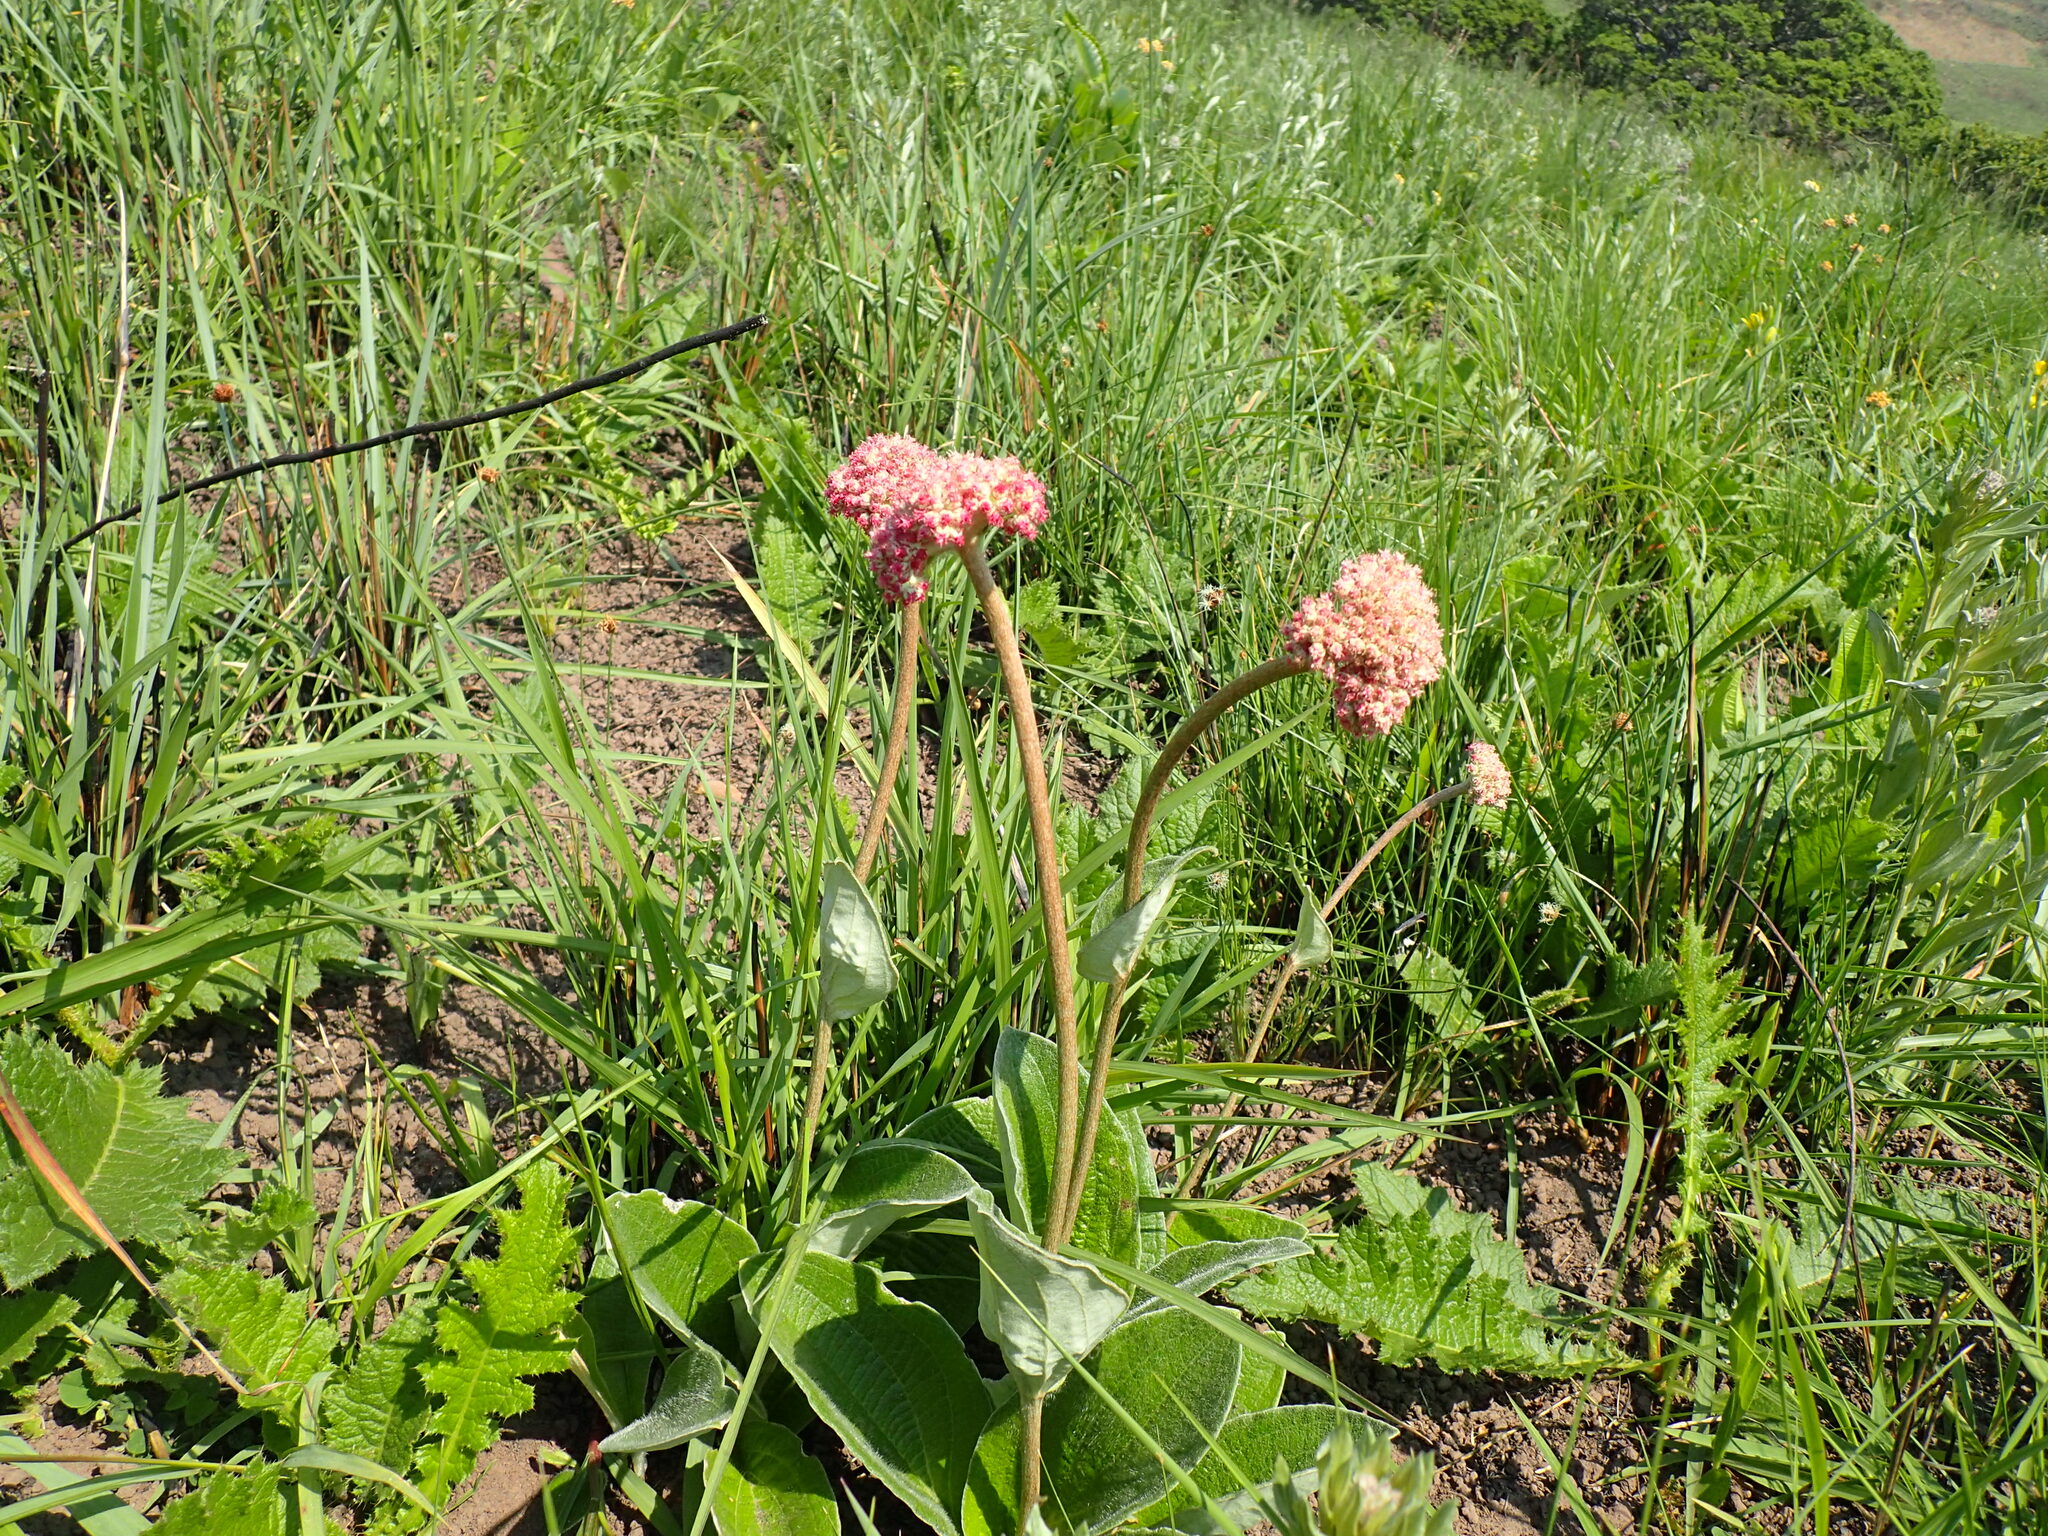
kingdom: Plantae
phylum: Tracheophyta
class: Magnoliopsida
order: Asterales
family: Asteraceae
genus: Helichrysum
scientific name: Helichrysum griseum
